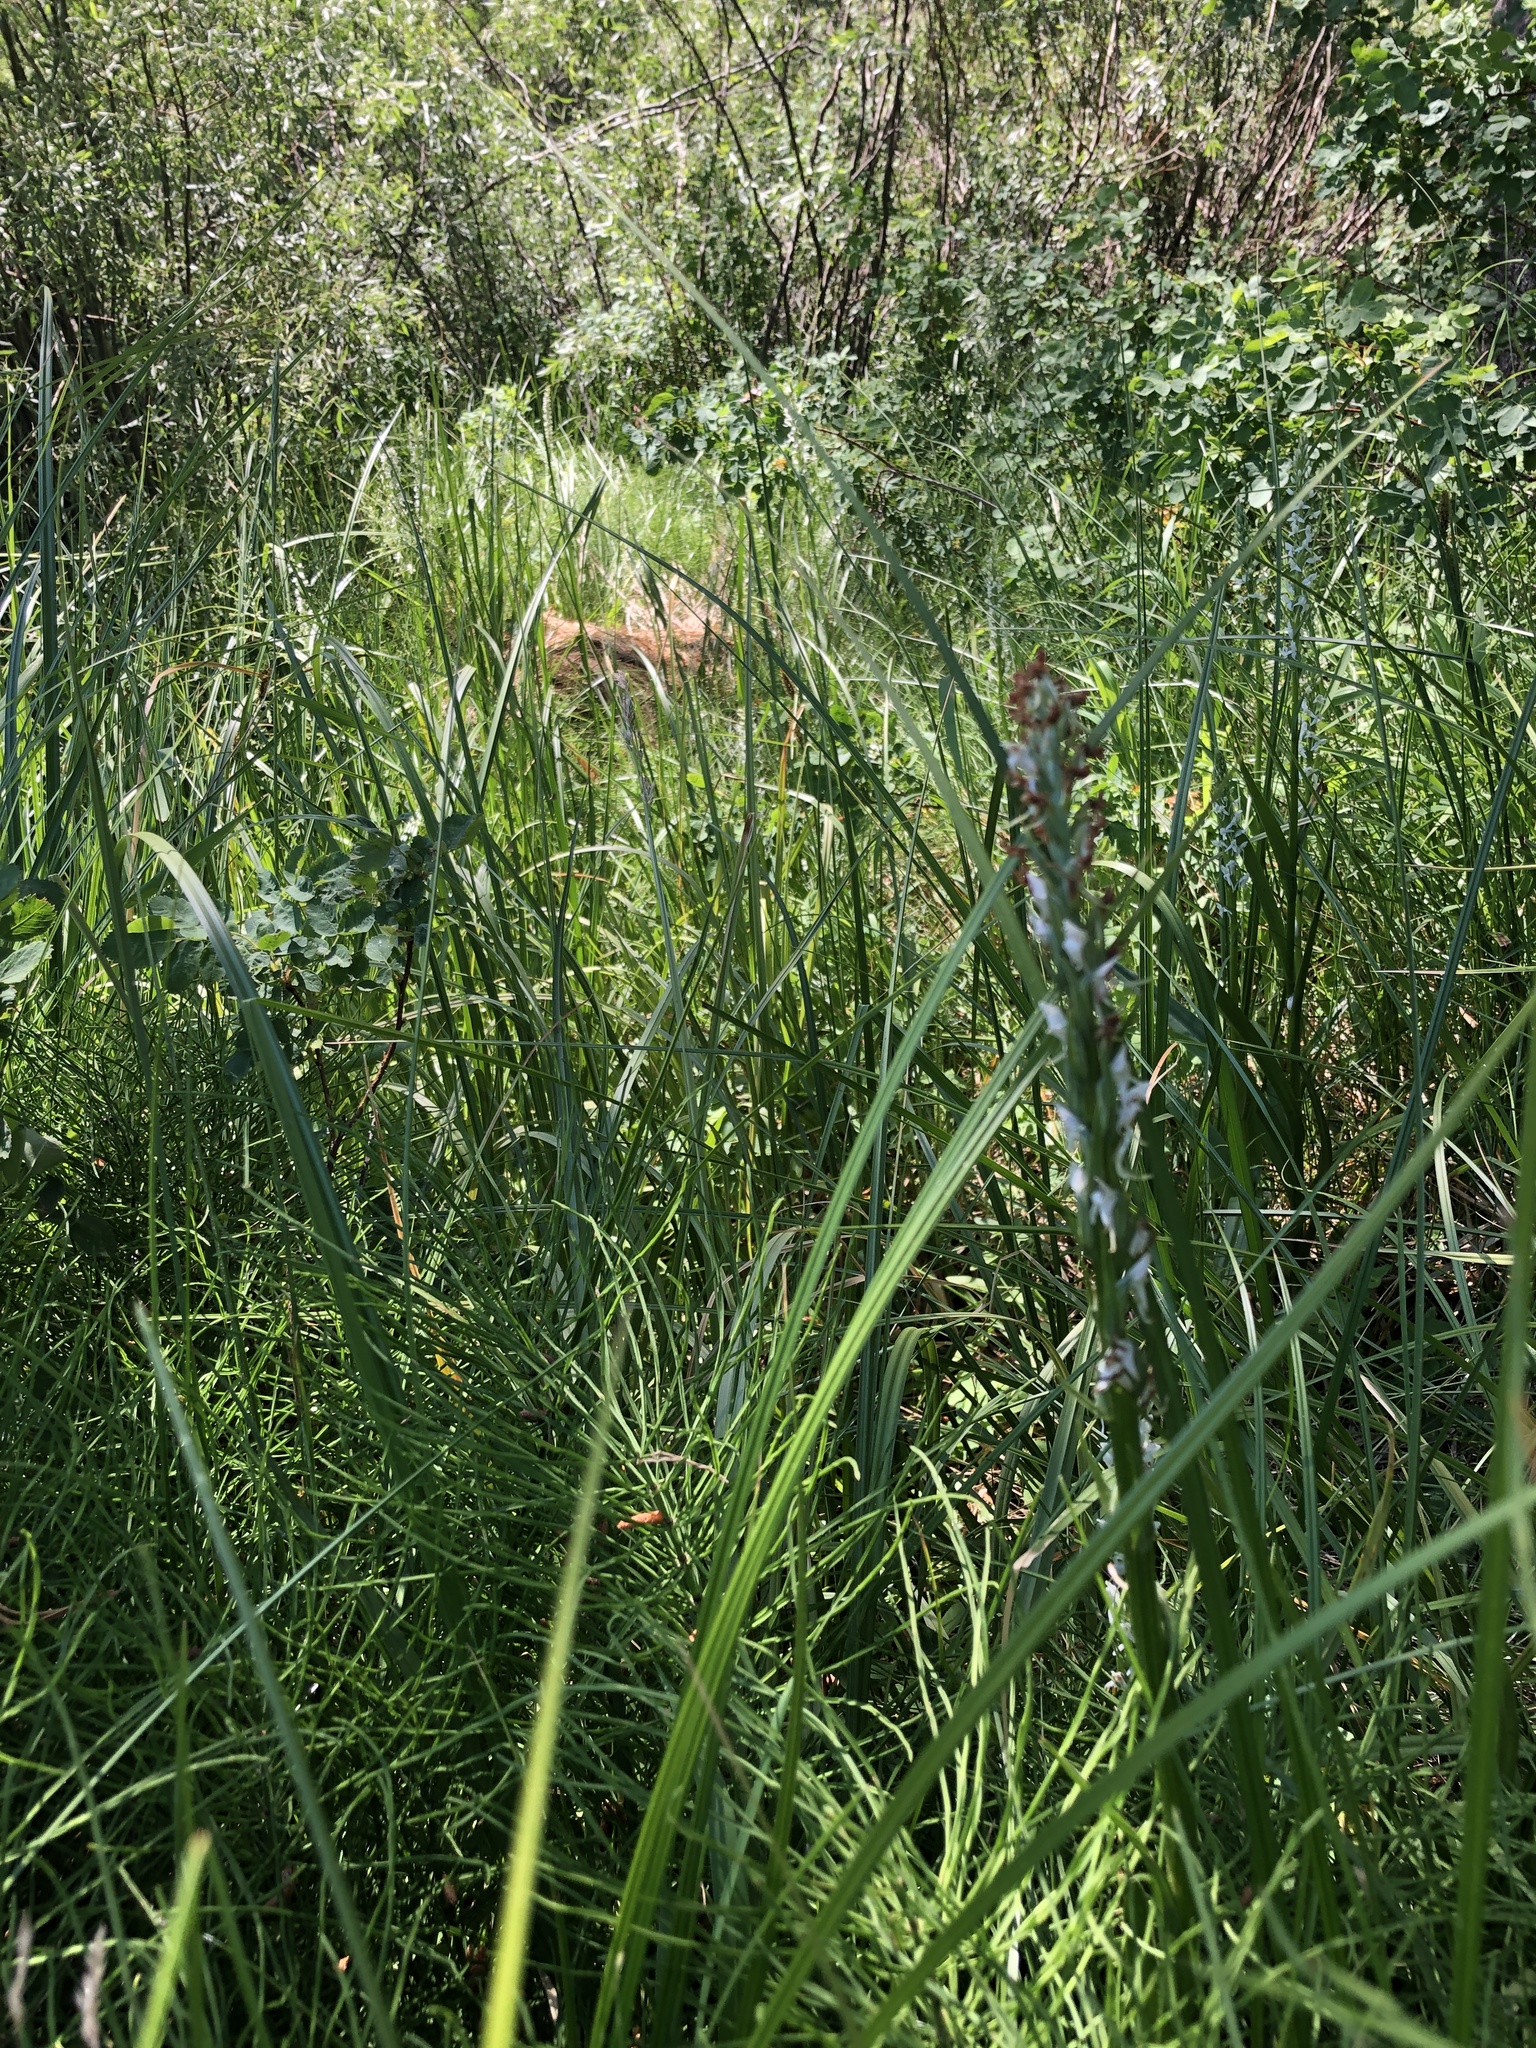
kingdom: Plantae
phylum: Tracheophyta
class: Liliopsida
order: Asparagales
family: Orchidaceae
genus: Platanthera
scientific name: Platanthera dilatata
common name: Bog candles
